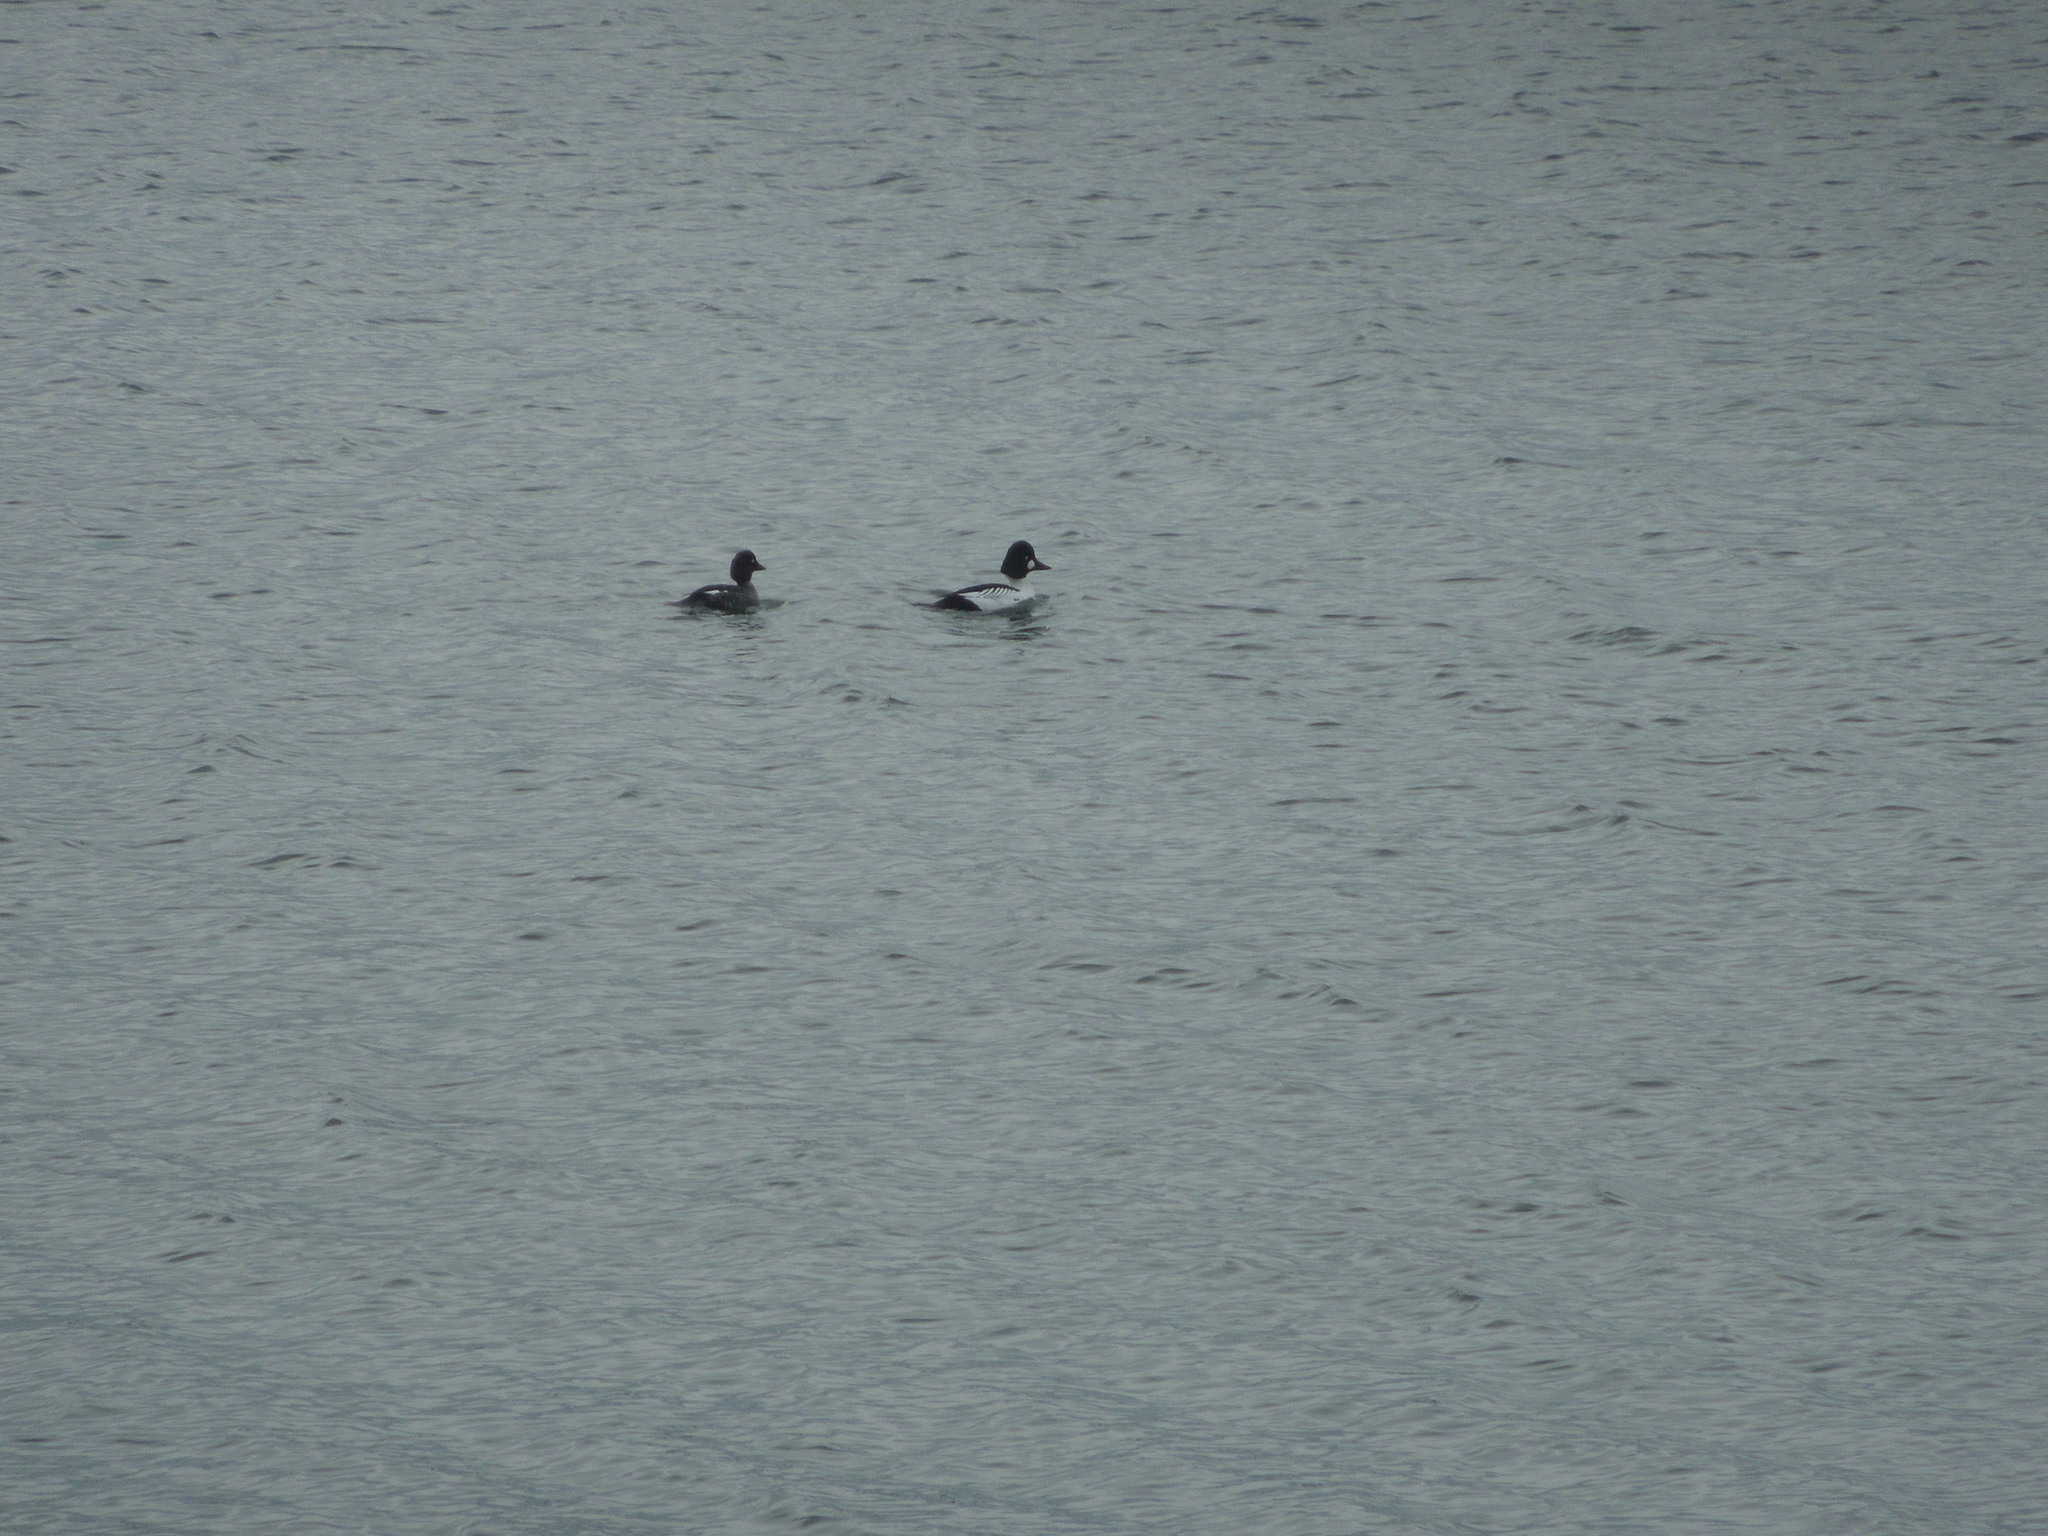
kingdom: Animalia
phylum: Chordata
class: Aves
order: Anseriformes
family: Anatidae
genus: Bucephala
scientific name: Bucephala clangula
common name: Common goldeneye
